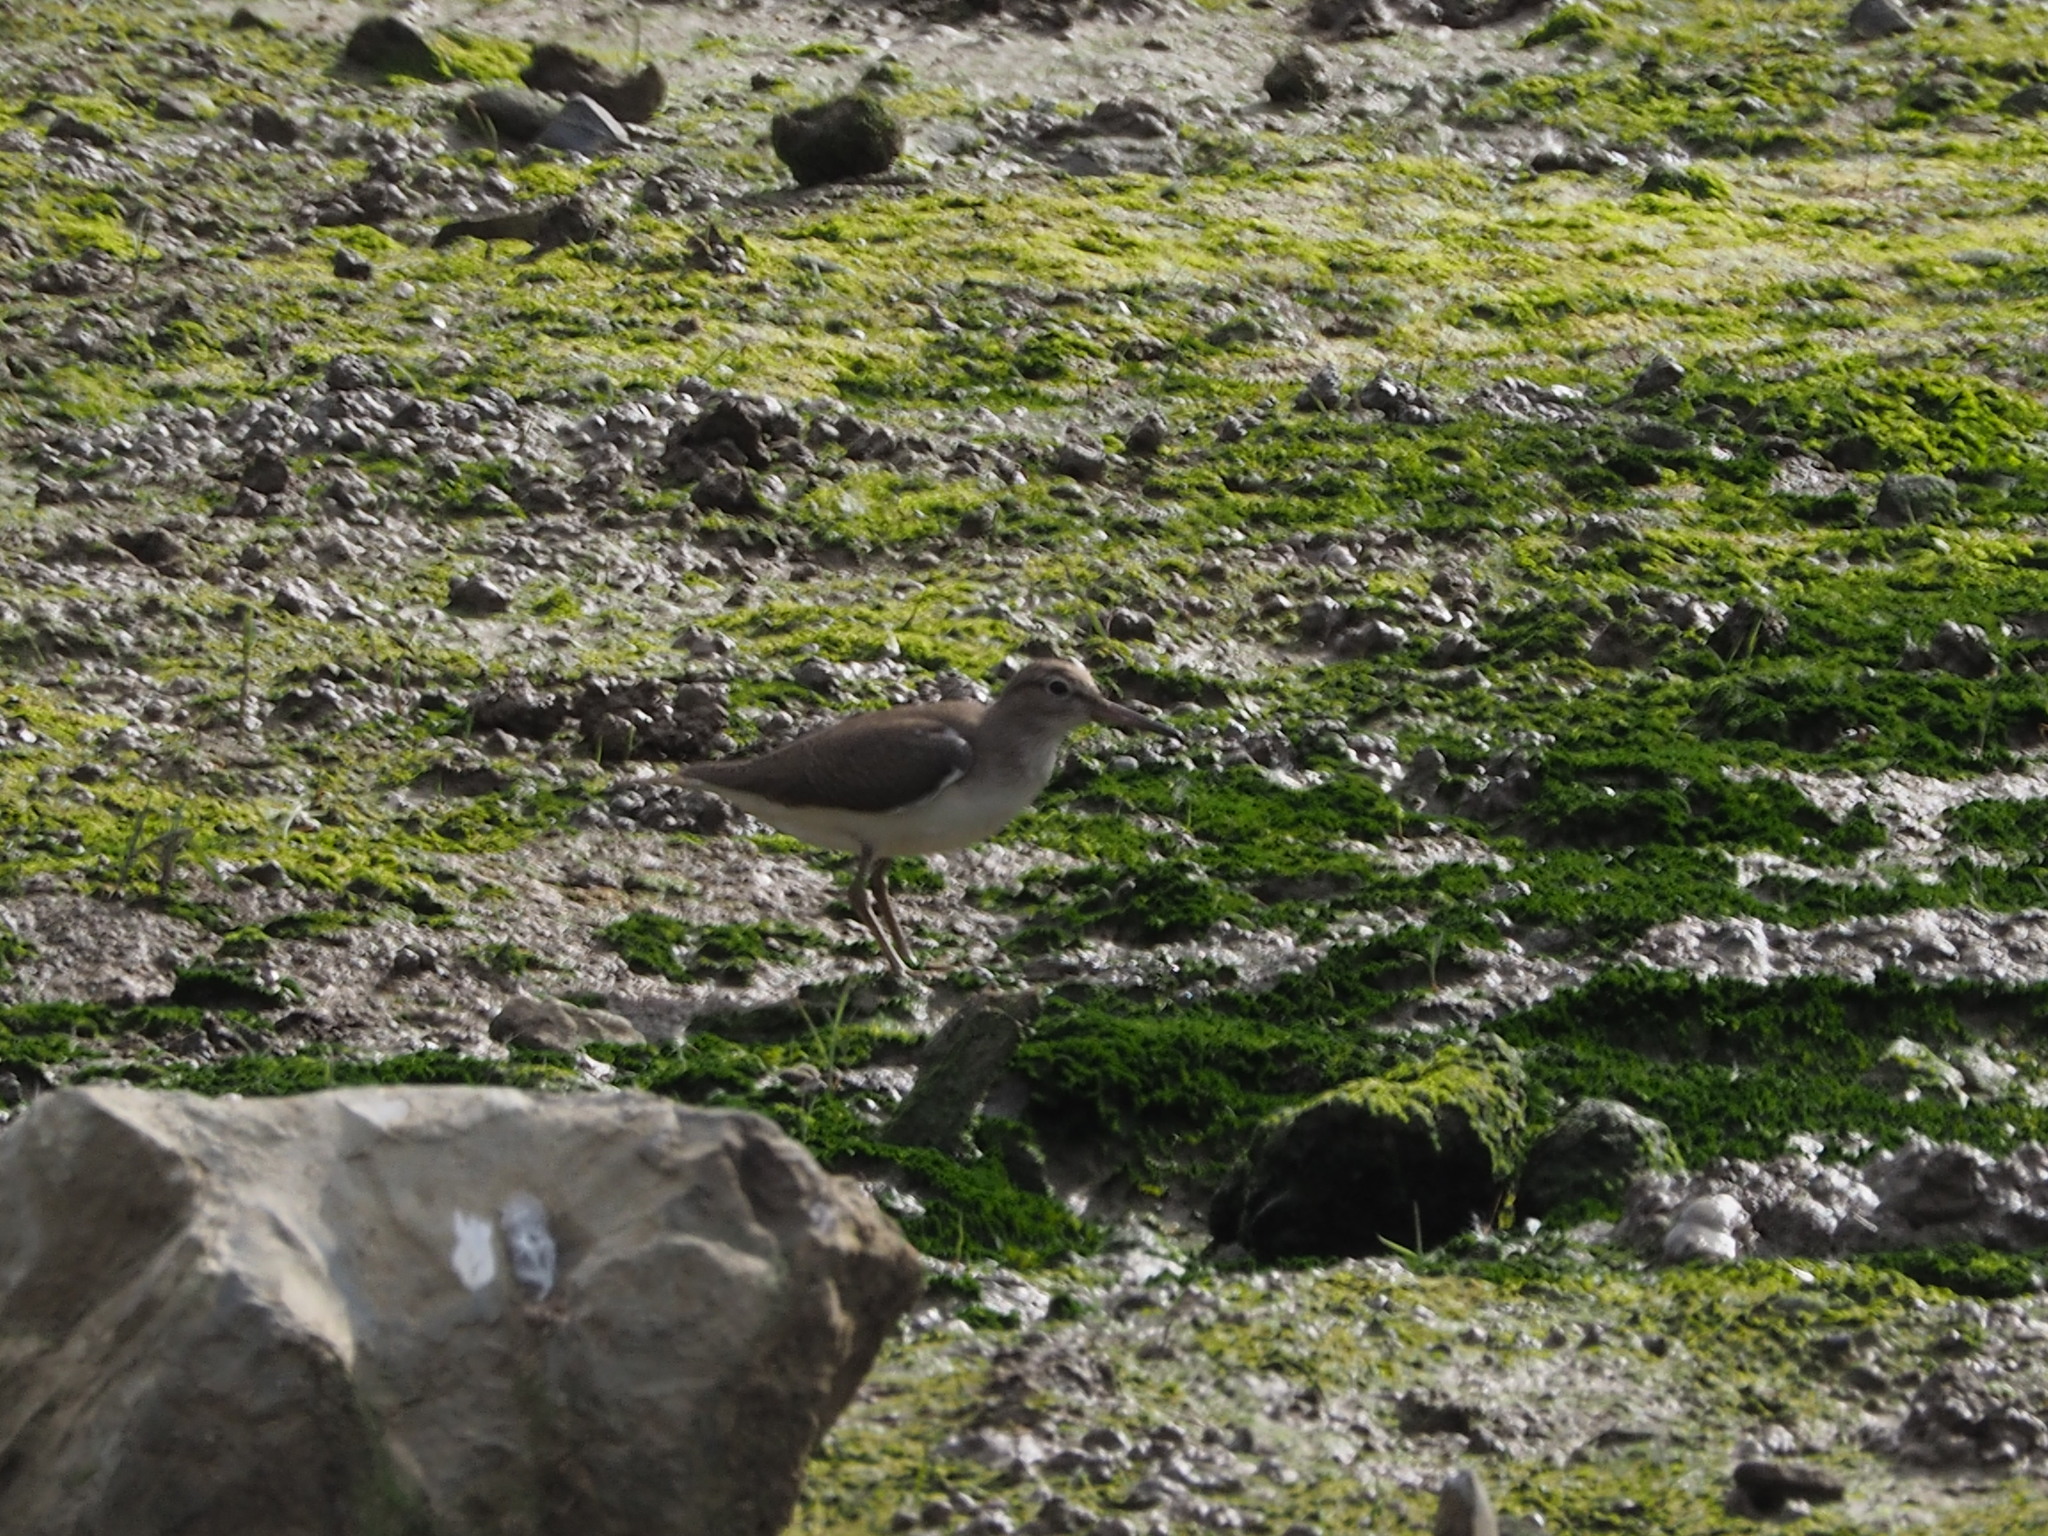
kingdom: Animalia
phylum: Chordata
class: Aves
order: Charadriiformes
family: Scolopacidae
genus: Actitis
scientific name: Actitis hypoleucos
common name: Common sandpiper
